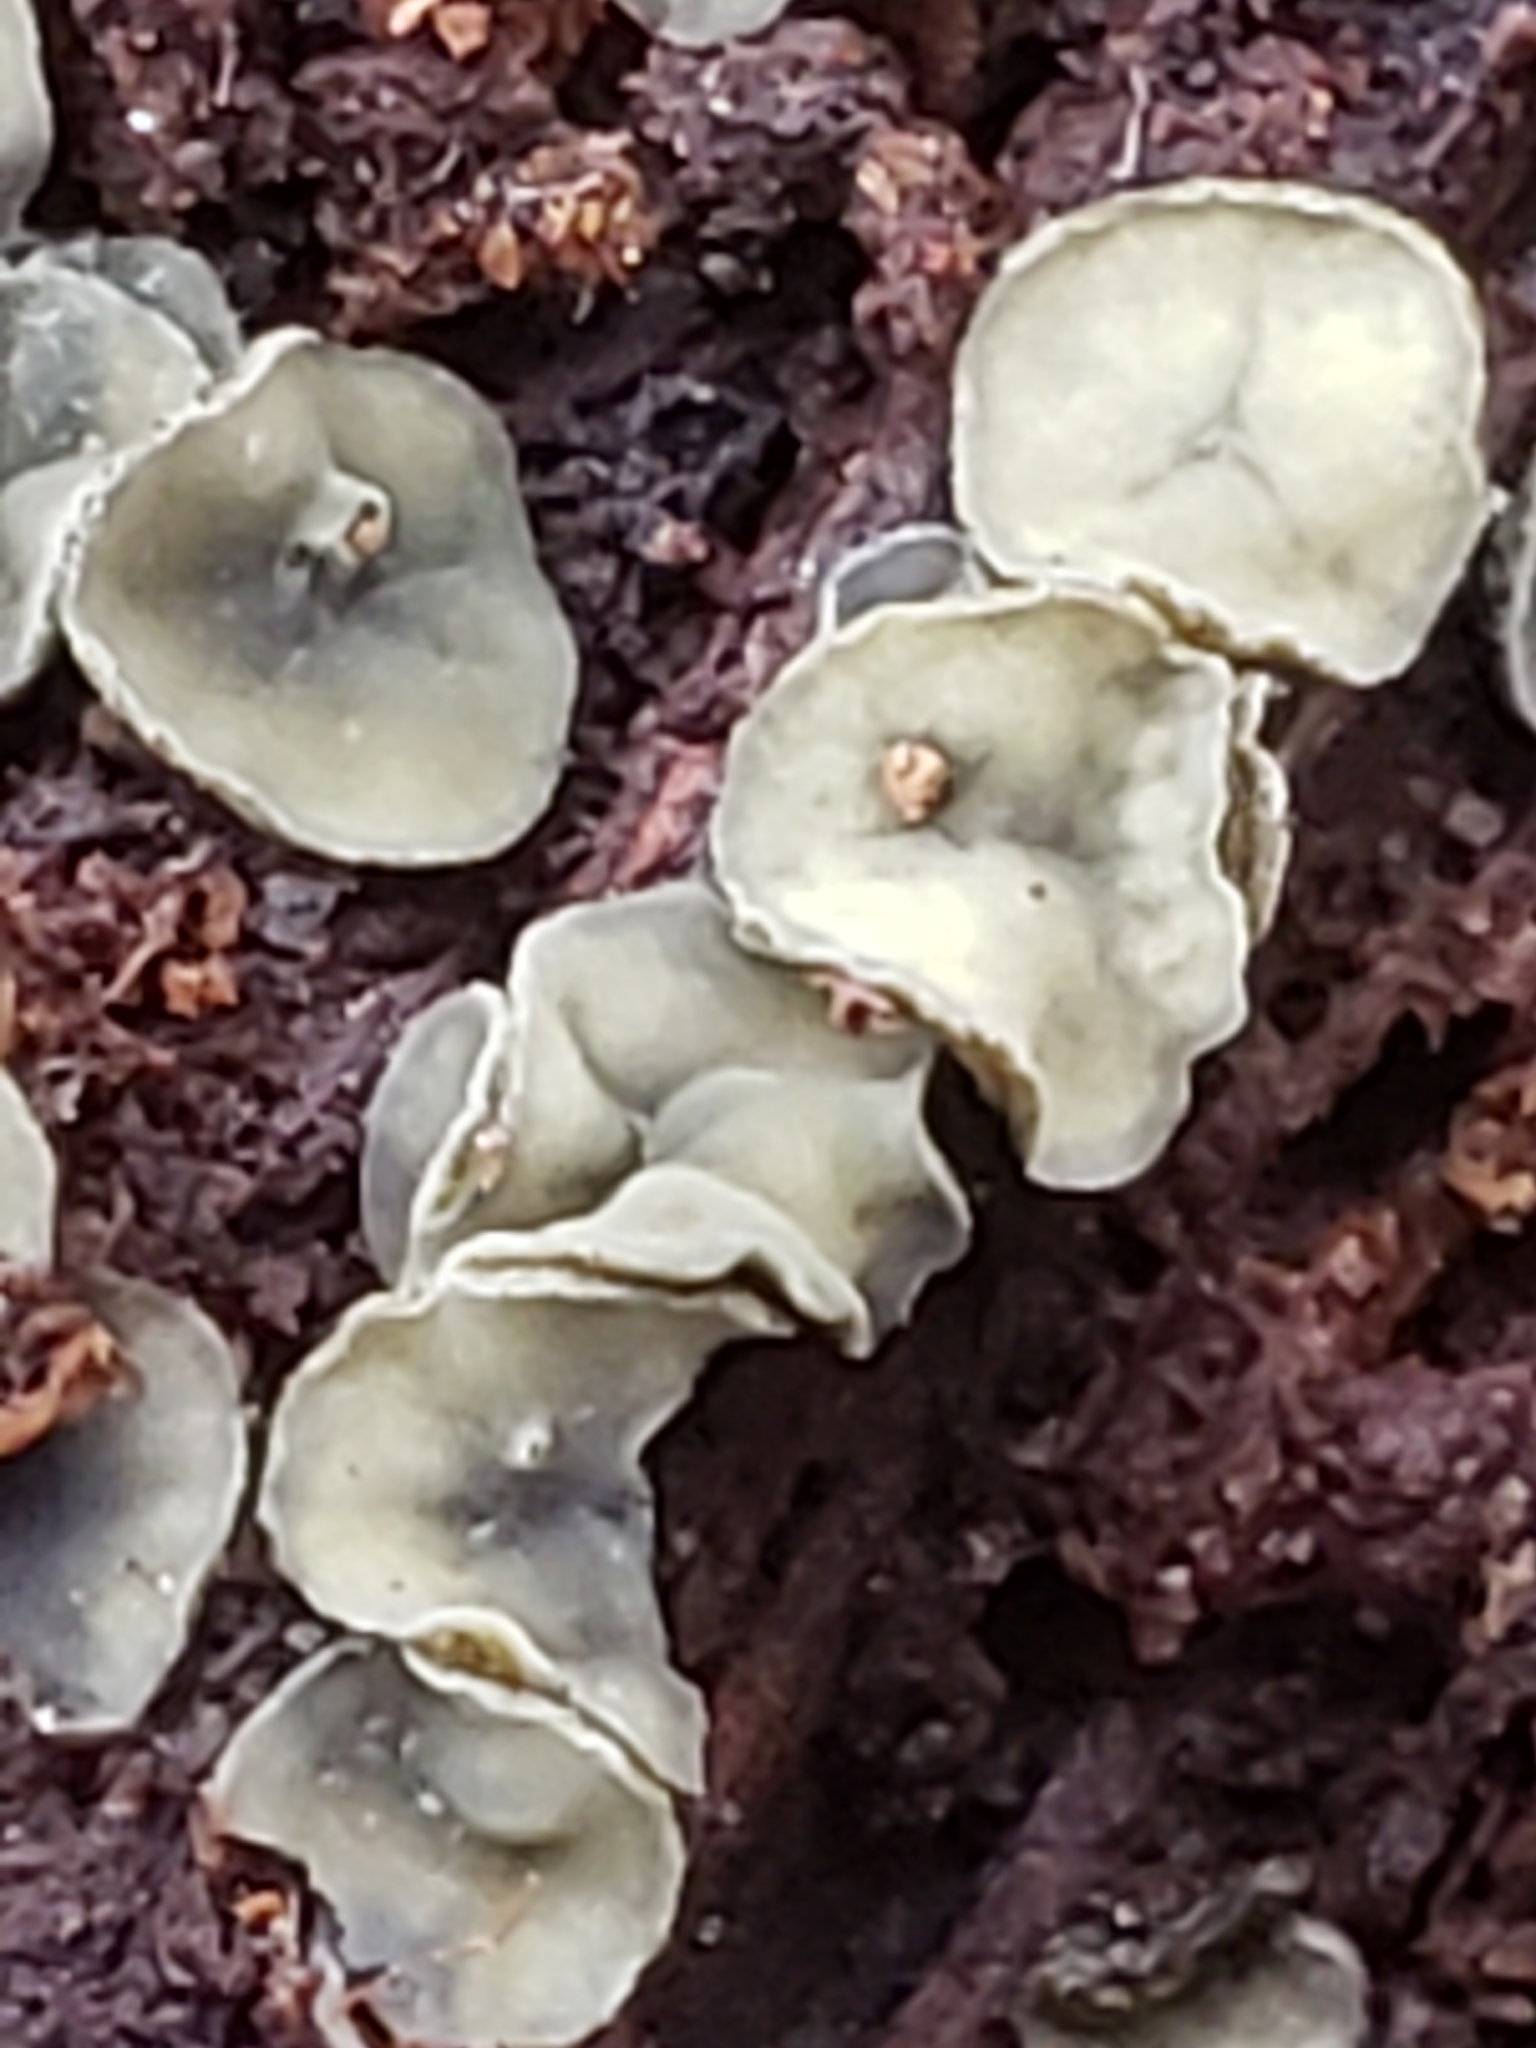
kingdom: Fungi
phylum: Ascomycota
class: Leotiomycetes
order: Helotiales
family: Chlorospleniaceae
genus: Chlorosplenium
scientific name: Chlorosplenium chlora
